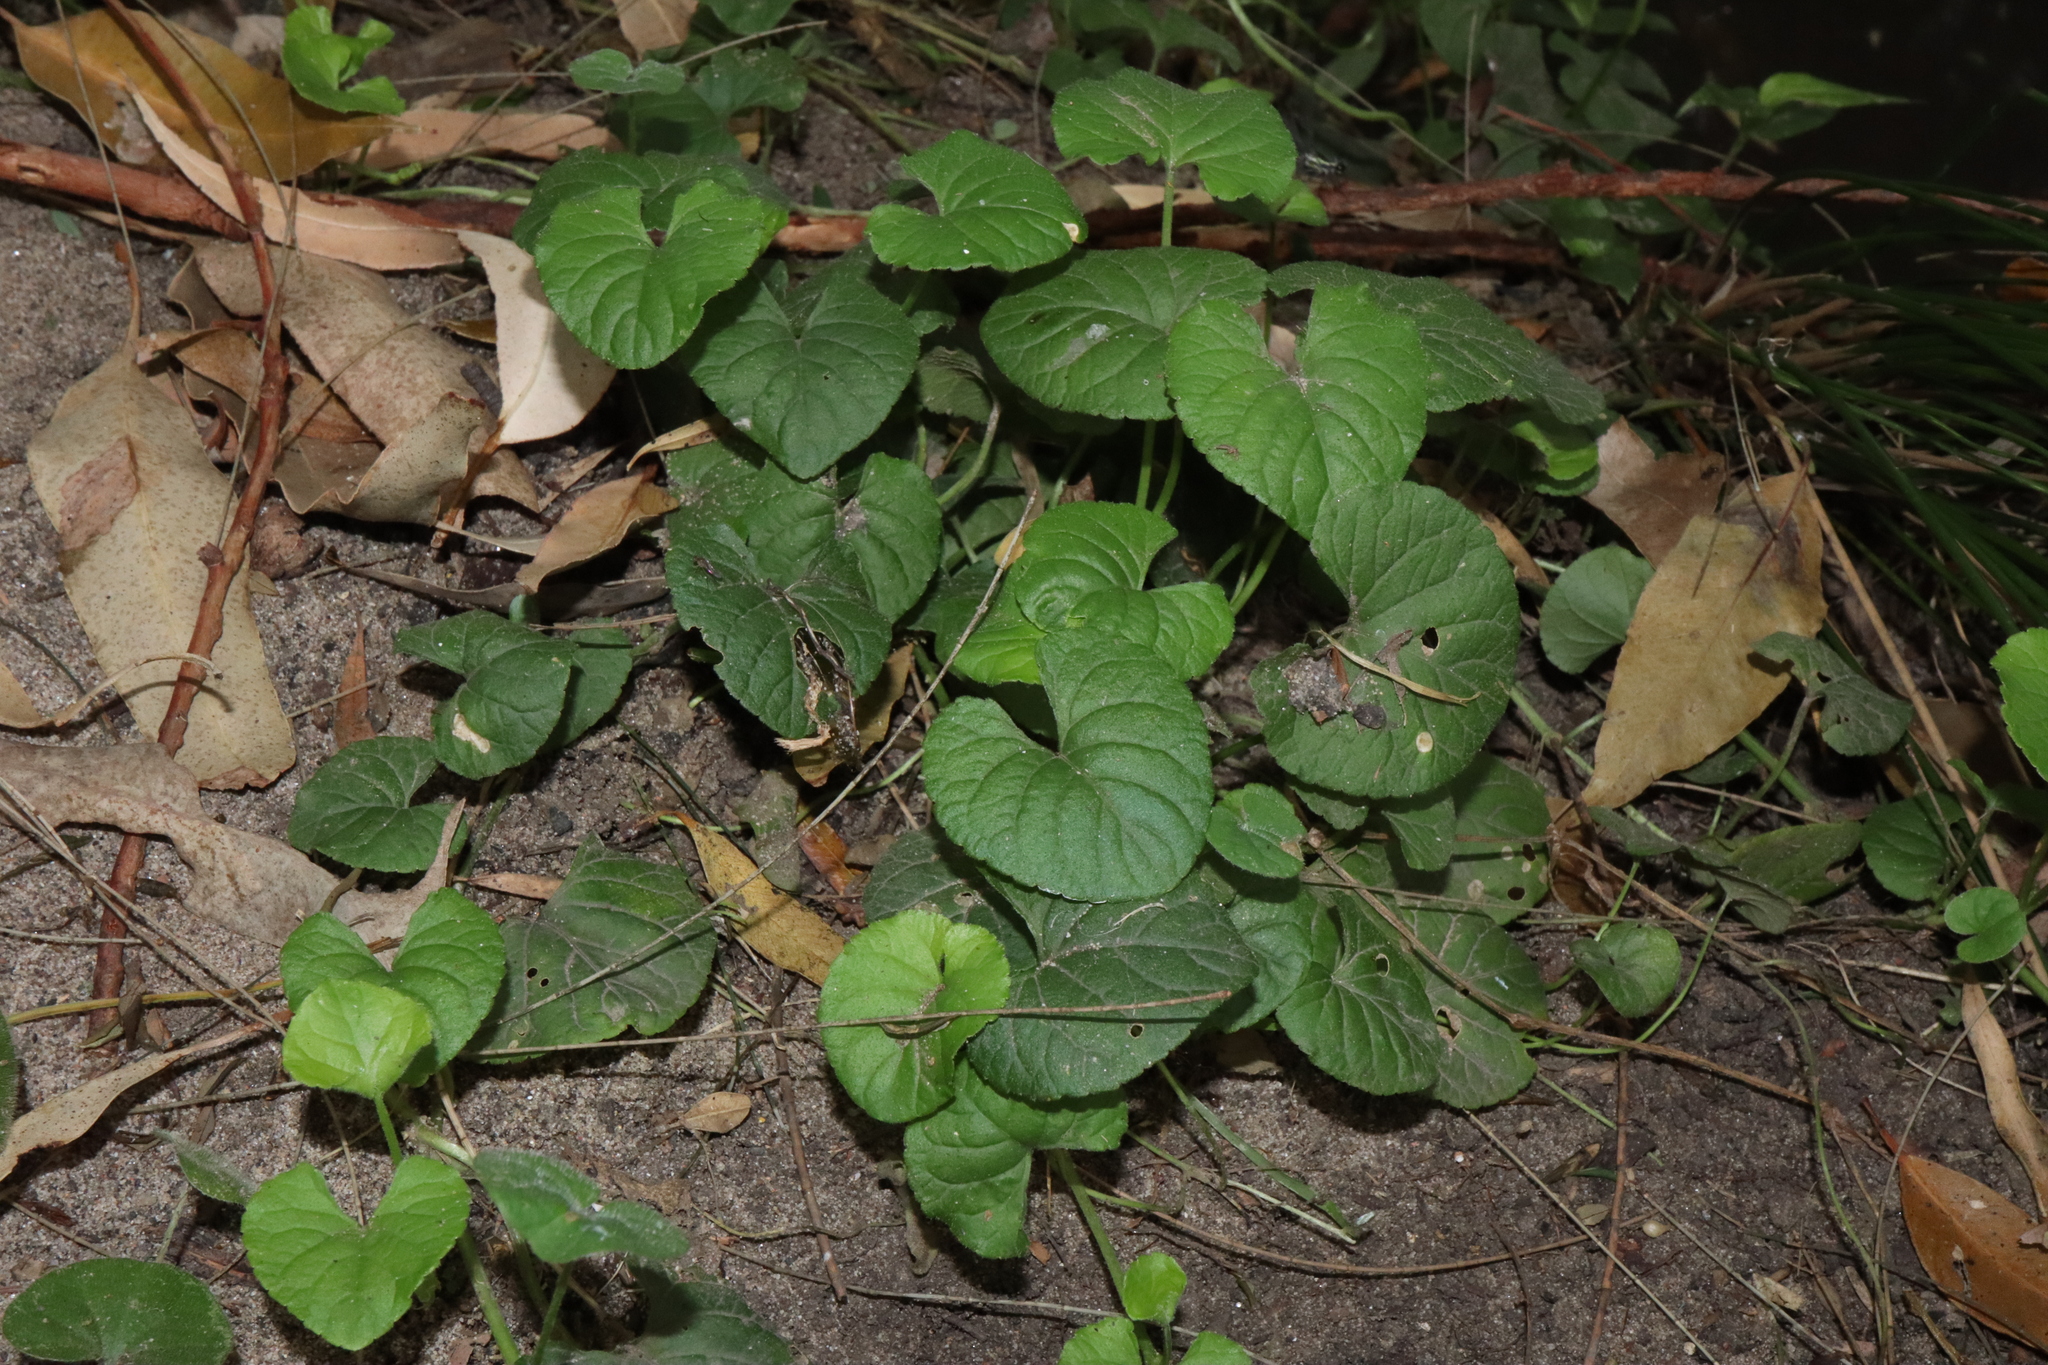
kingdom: Plantae
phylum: Tracheophyta
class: Magnoliopsida
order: Malpighiales
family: Violaceae
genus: Viola
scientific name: Viola odorata
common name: Sweet violet
